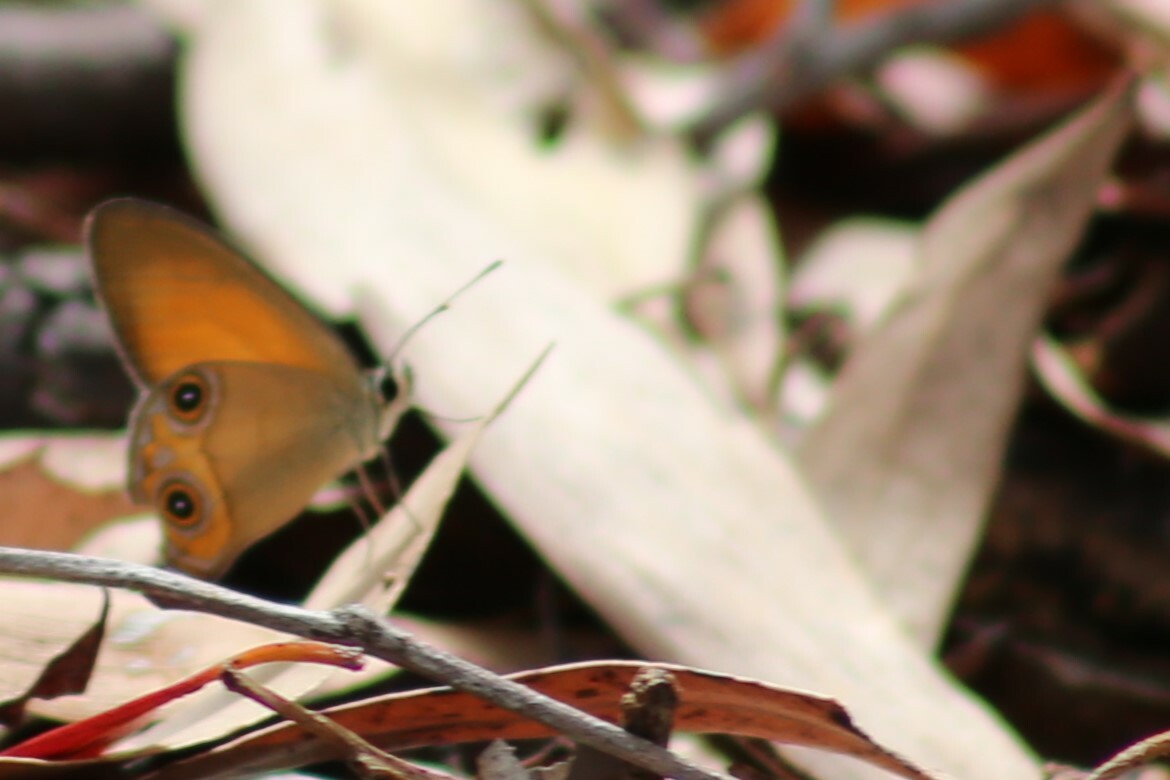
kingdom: Animalia
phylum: Arthropoda
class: Insecta
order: Lepidoptera
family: Nymphalidae
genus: Hypocysta
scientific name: Hypocysta adiante
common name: Orange ringlet
